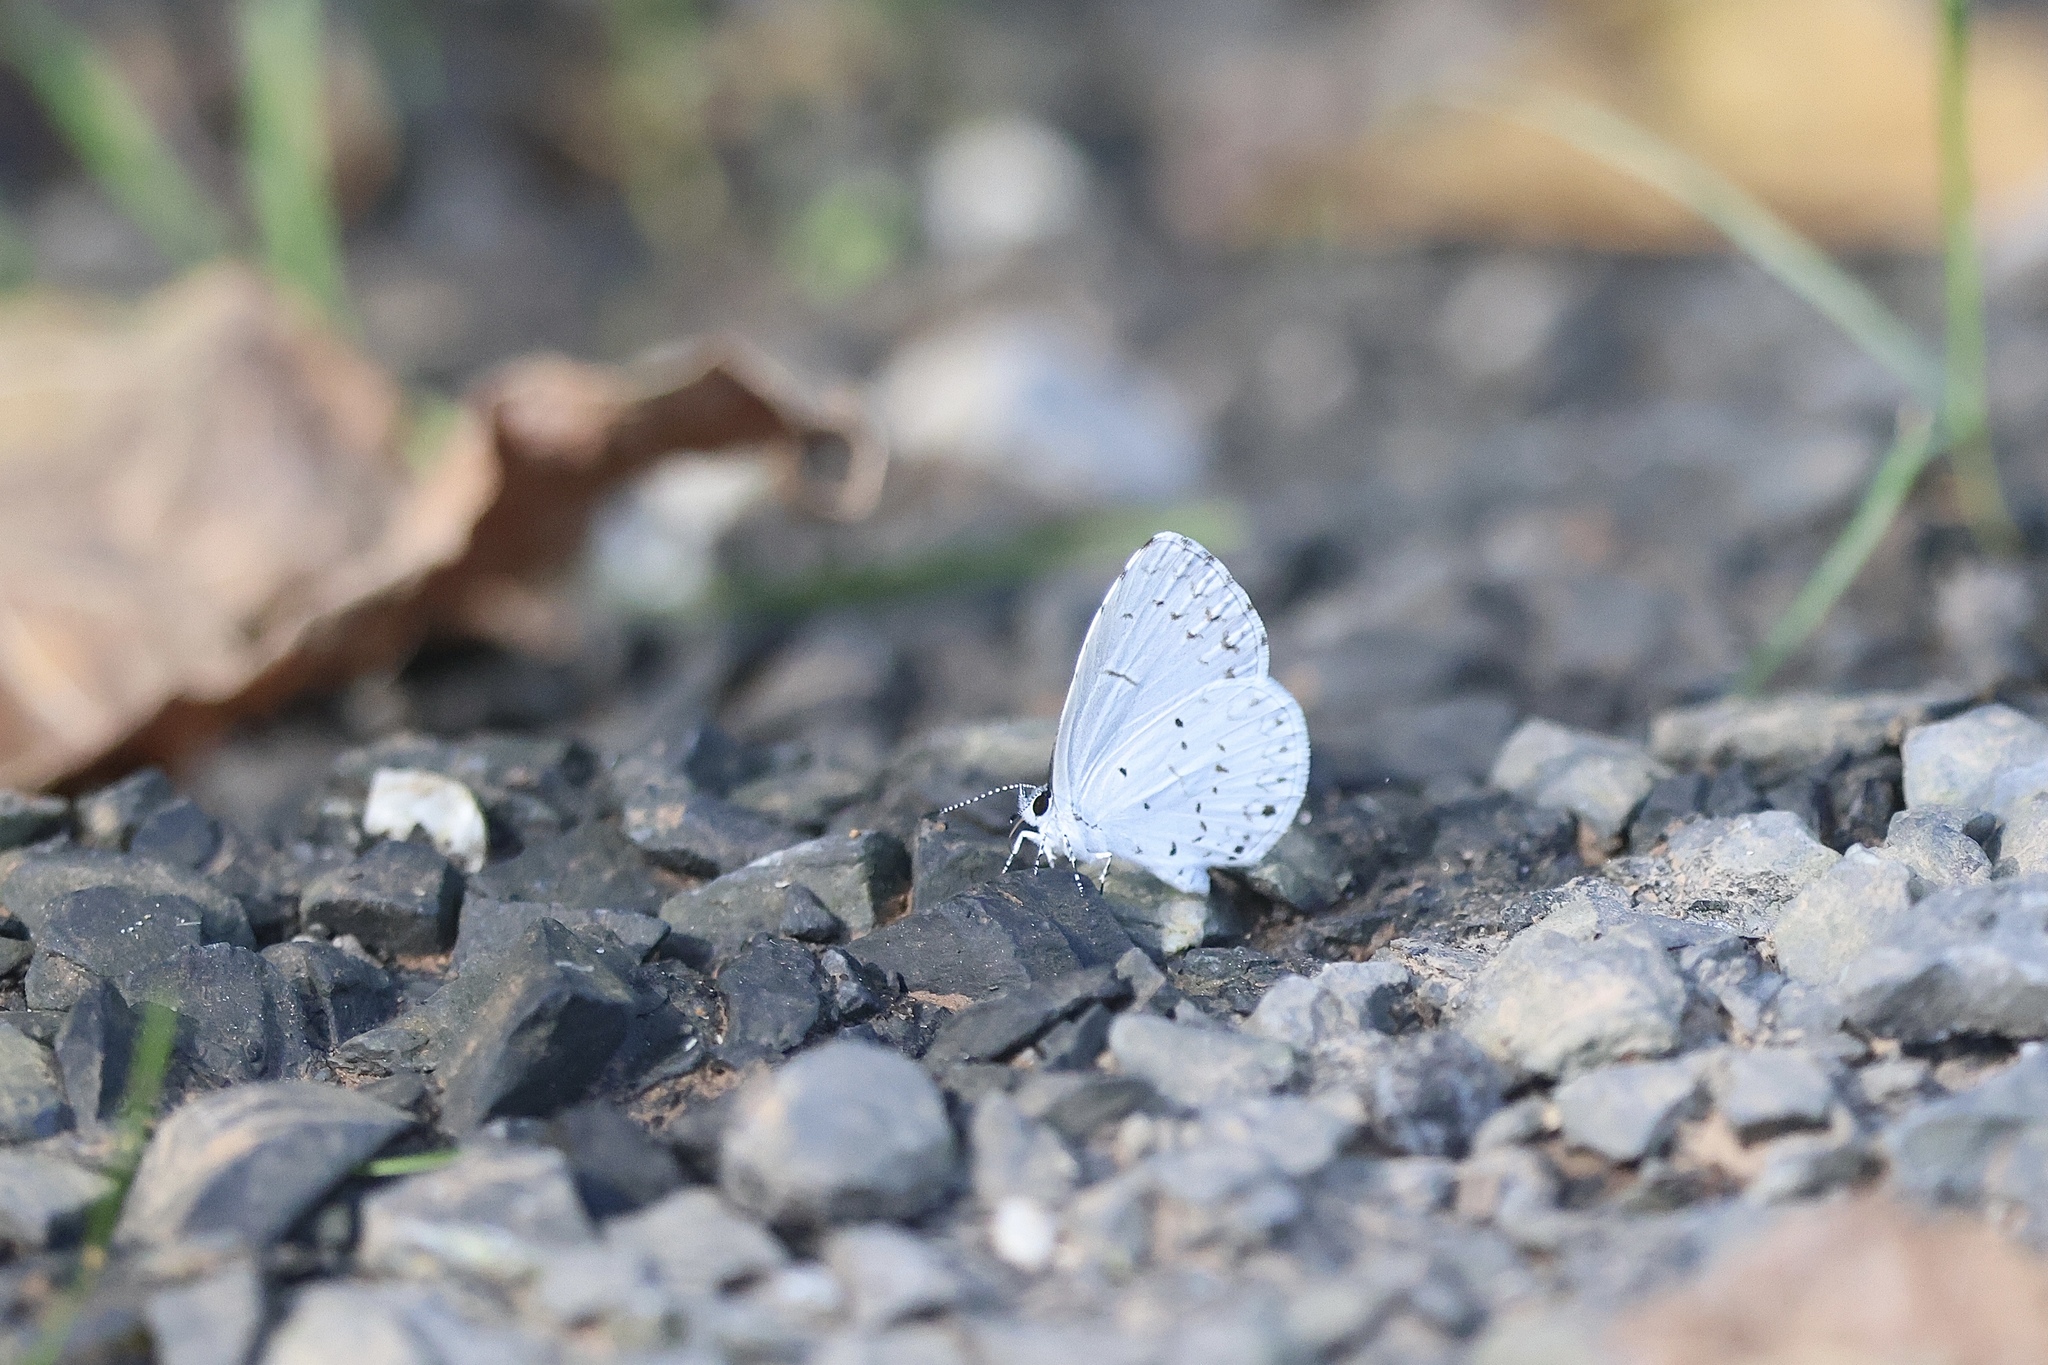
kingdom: Animalia
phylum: Arthropoda
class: Insecta
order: Lepidoptera
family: Lycaenidae
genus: Cyaniris
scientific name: Cyaniris neglecta
